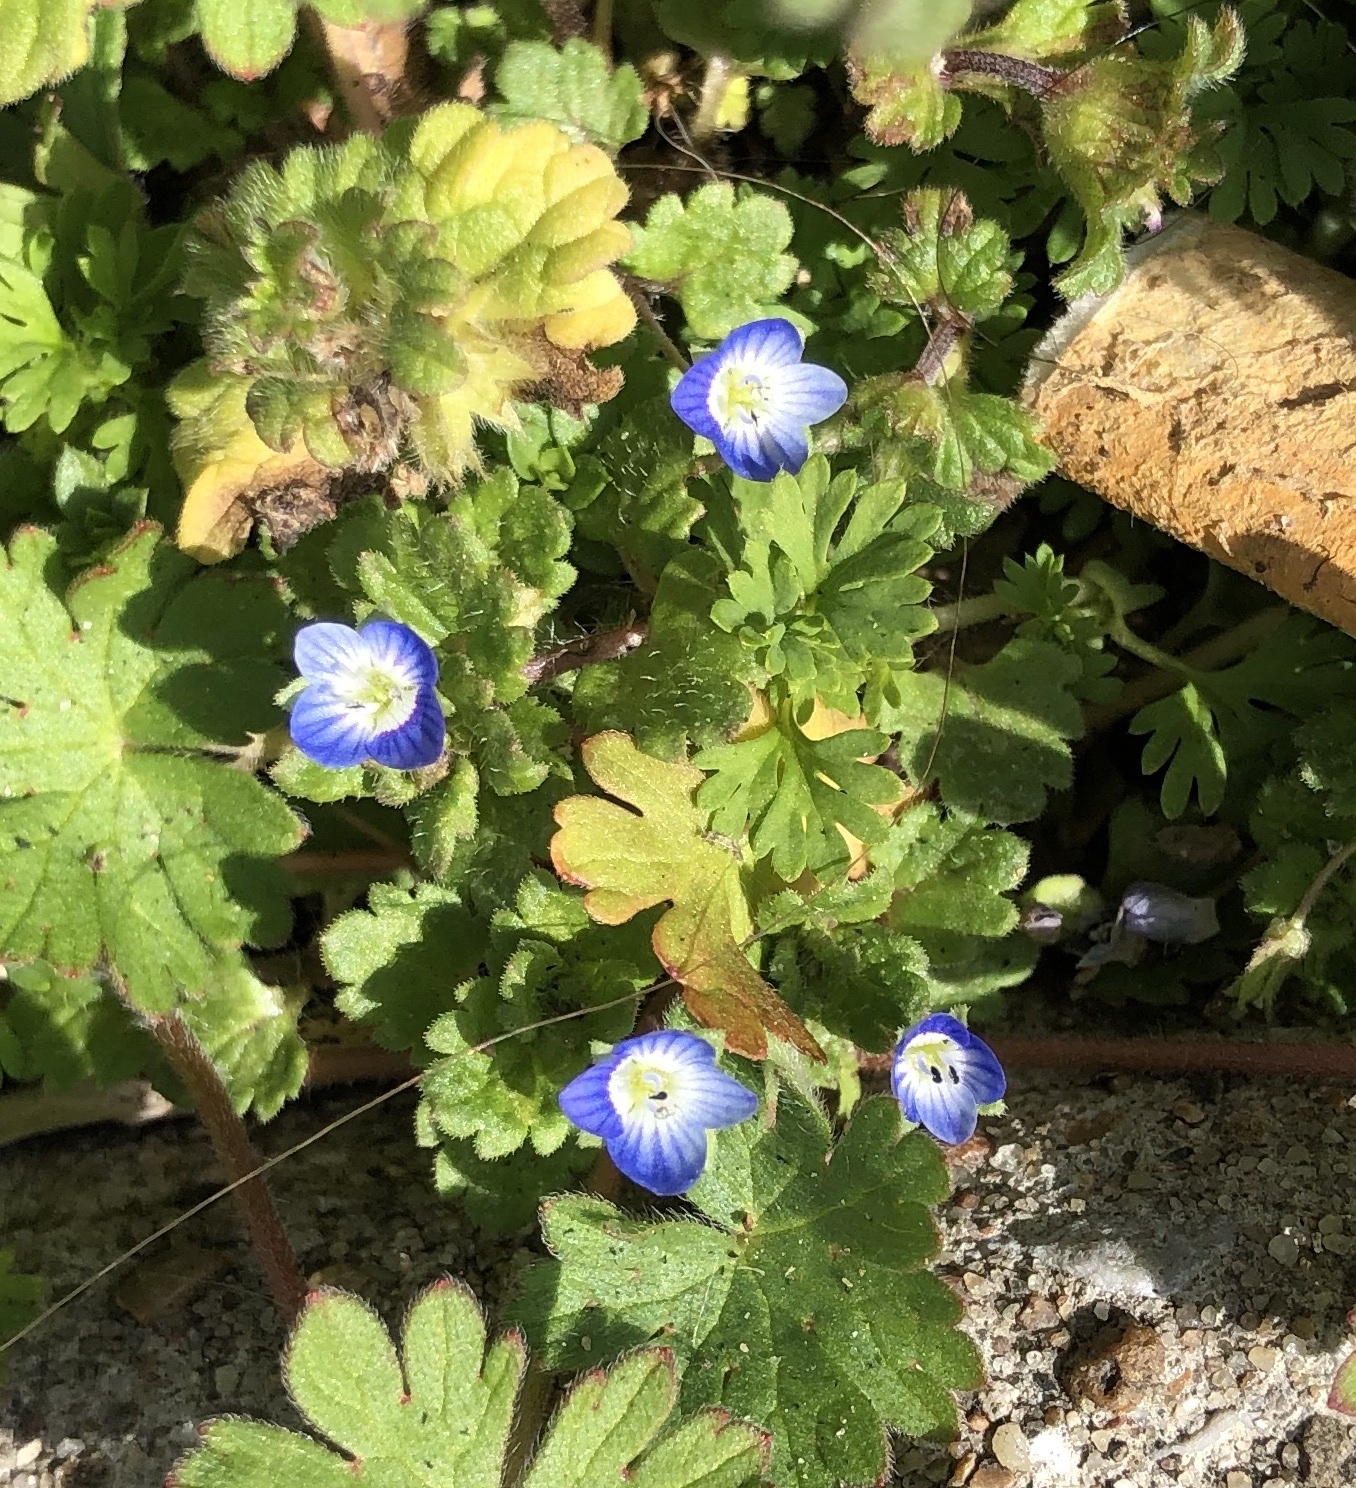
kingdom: Plantae
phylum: Tracheophyta
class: Magnoliopsida
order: Lamiales
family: Plantaginaceae
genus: Veronica
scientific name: Veronica persica
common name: Common field-speedwell
